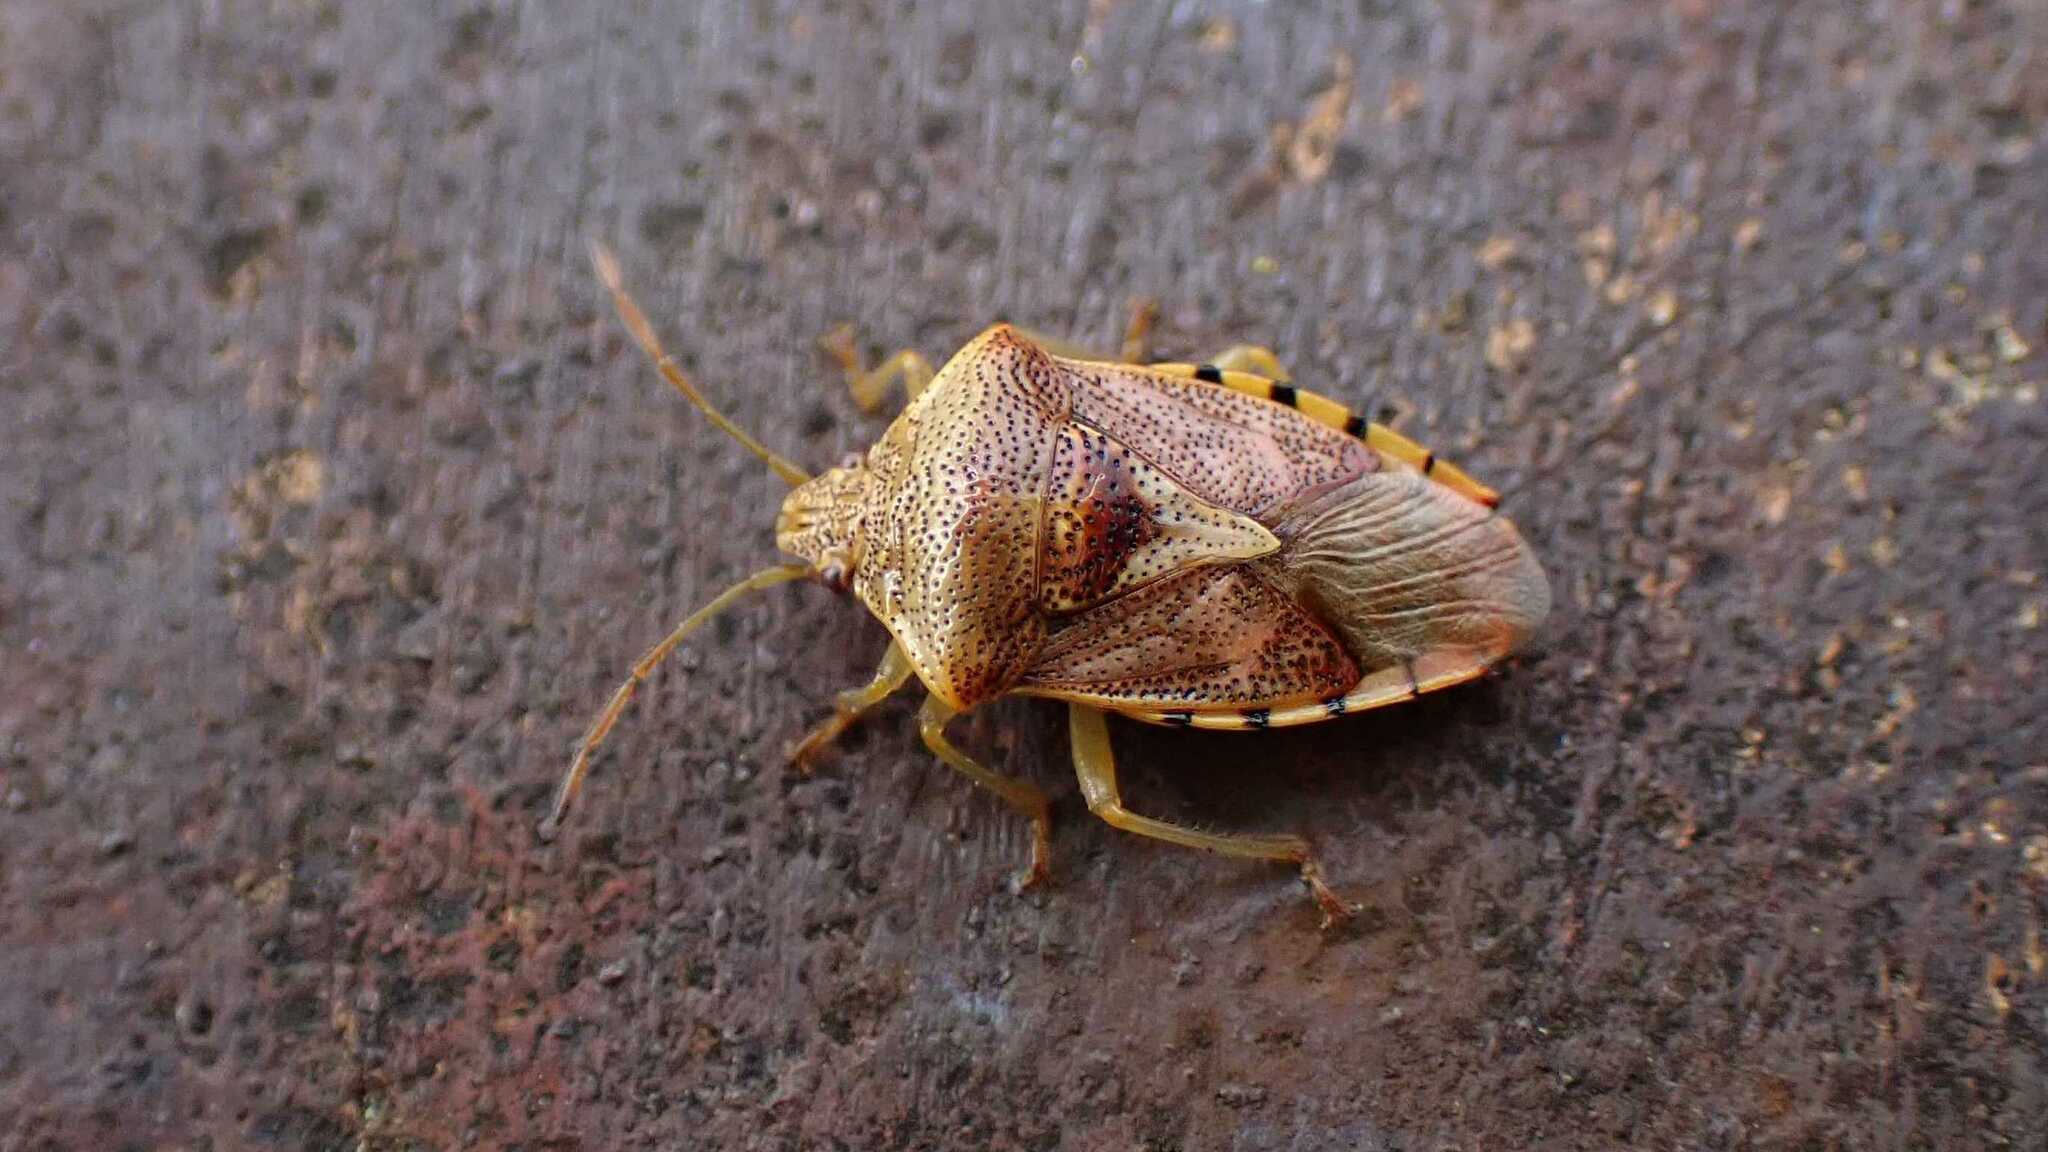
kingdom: Animalia
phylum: Arthropoda
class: Insecta
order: Hemiptera
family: Acanthosomatidae
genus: Elasmucha
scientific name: Elasmucha grisea
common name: Parent bug
